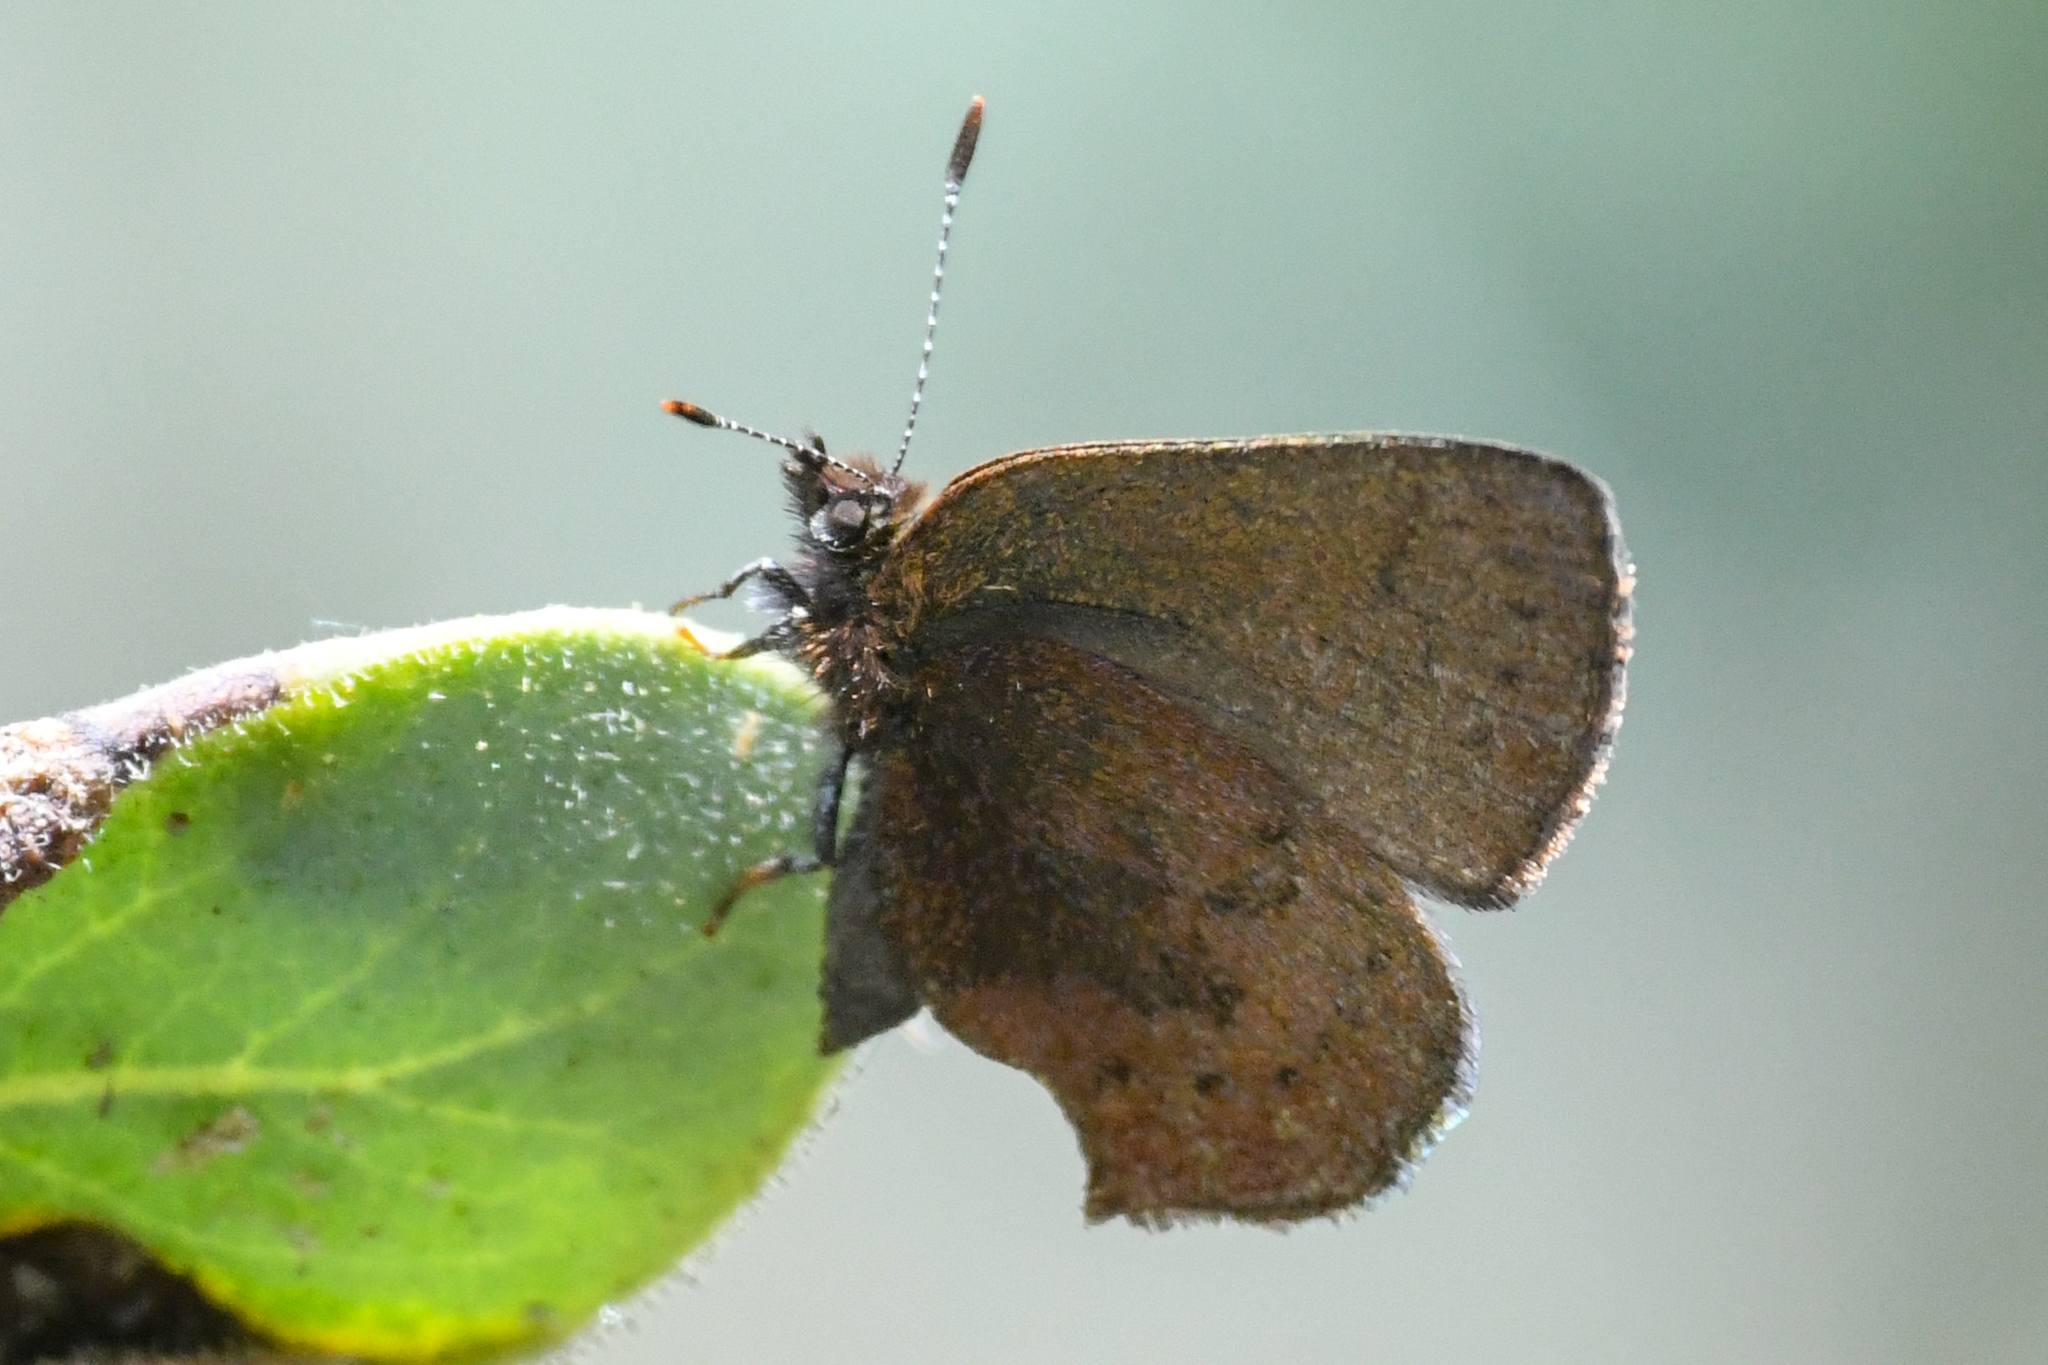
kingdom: Animalia
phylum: Arthropoda
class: Insecta
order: Lepidoptera
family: Lycaenidae
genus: Incisalia
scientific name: Incisalia irioides
